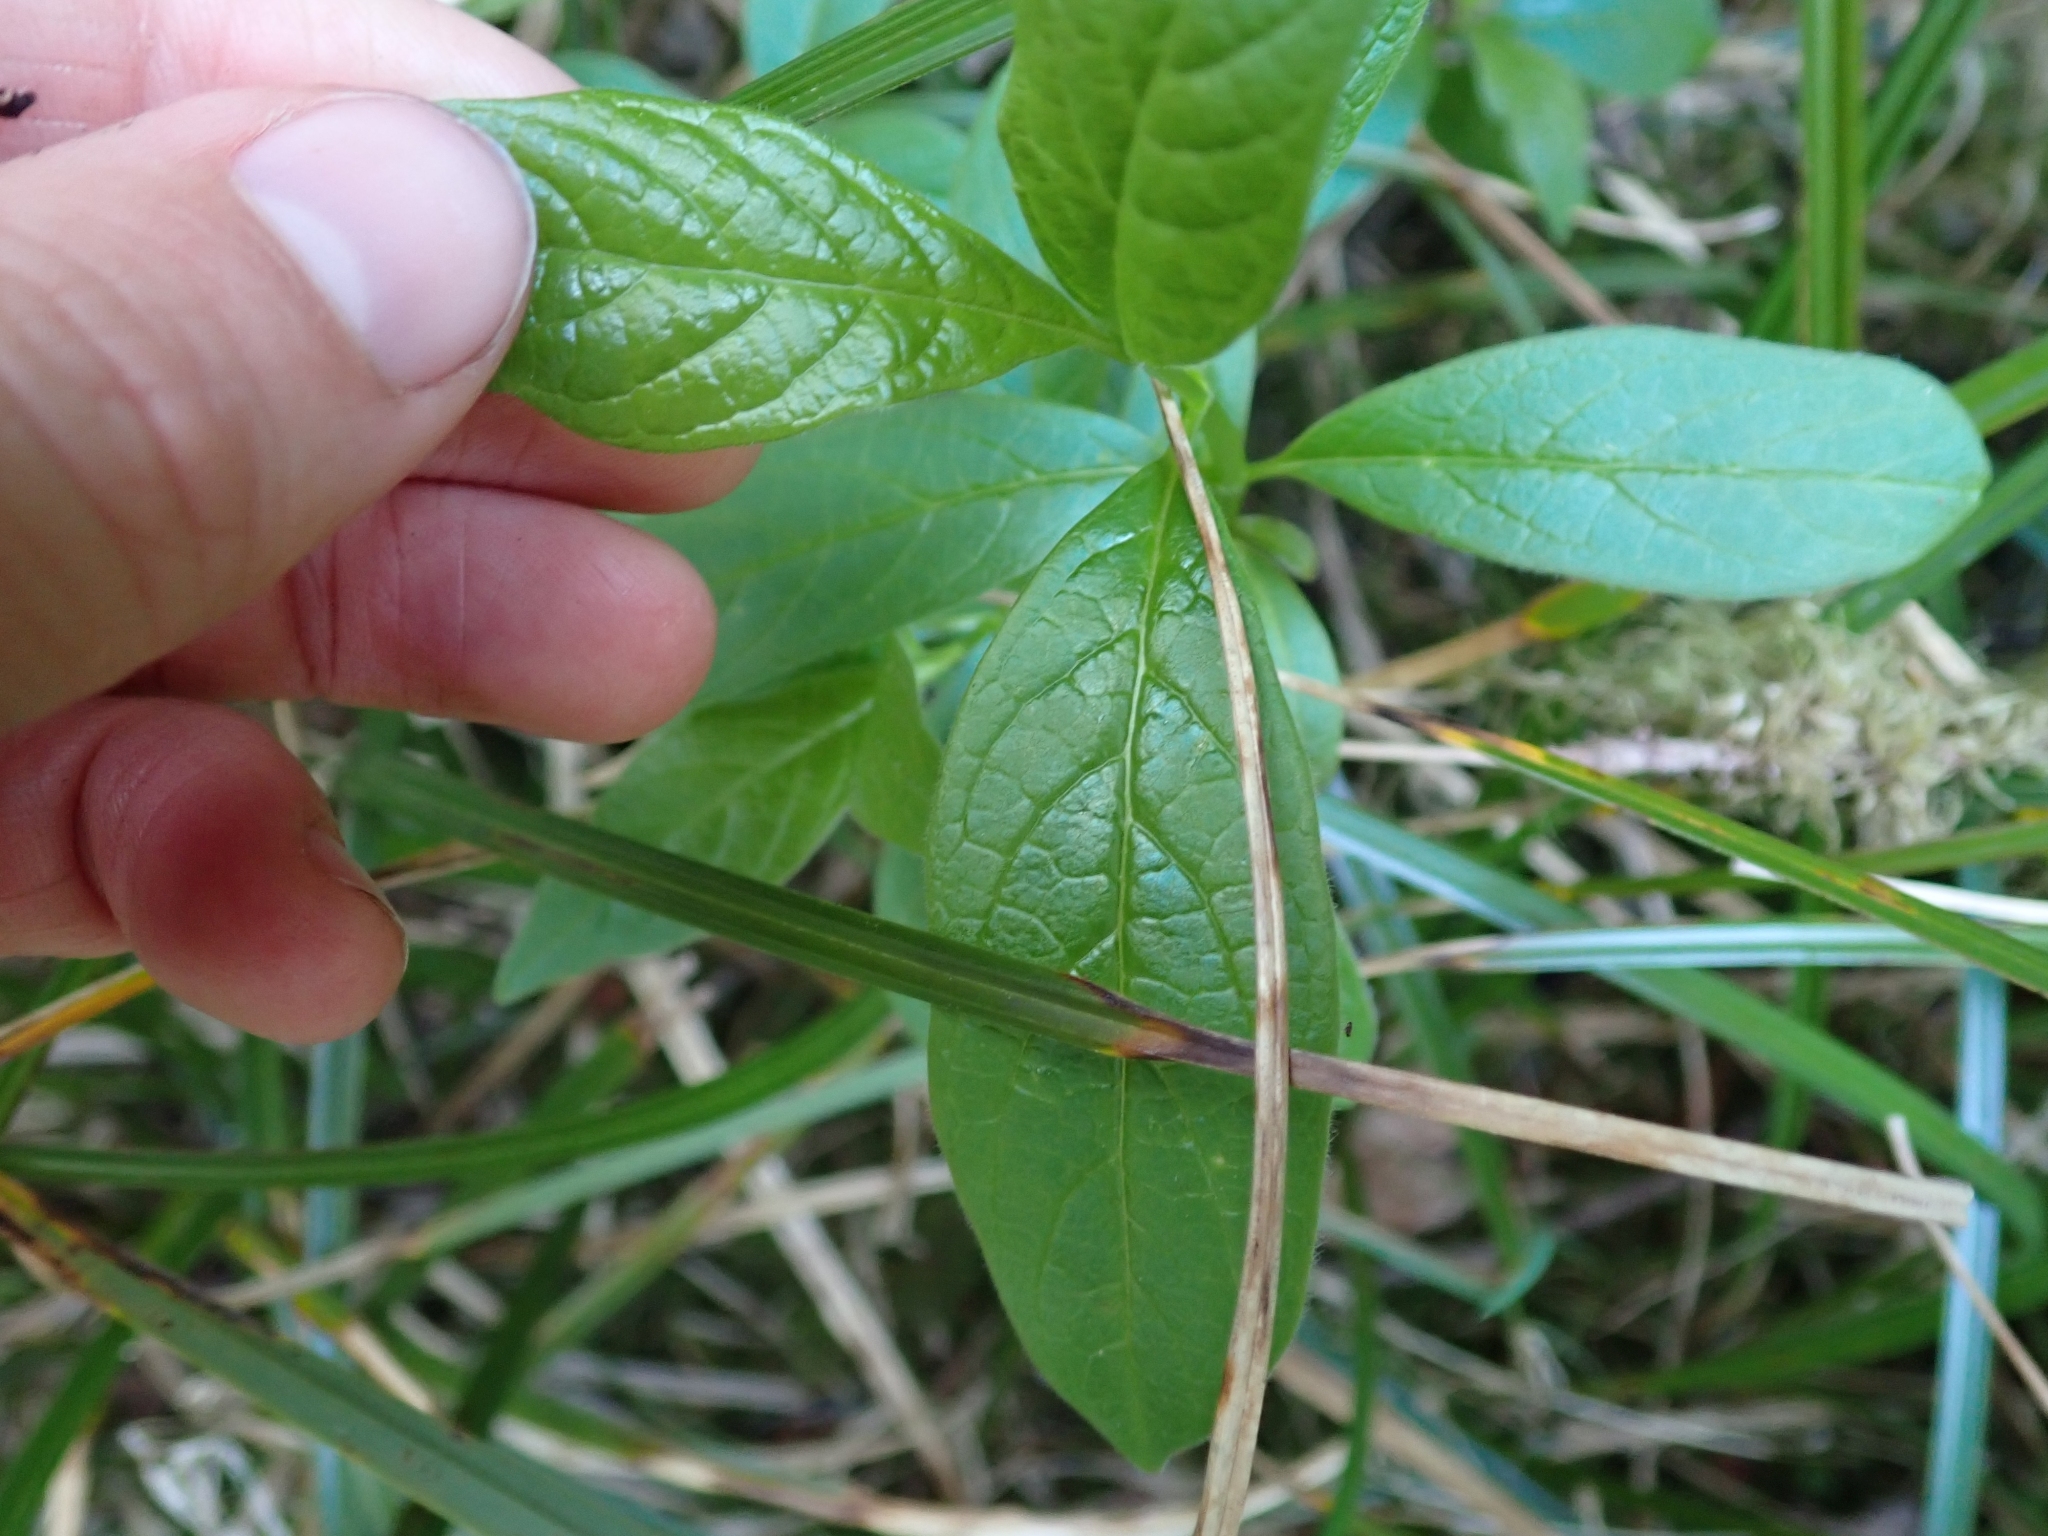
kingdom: Plantae
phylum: Tracheophyta
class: Magnoliopsida
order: Dipsacales
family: Caprifoliaceae
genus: Lonicera
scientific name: Lonicera involucrata
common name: Californian honeysuckle
